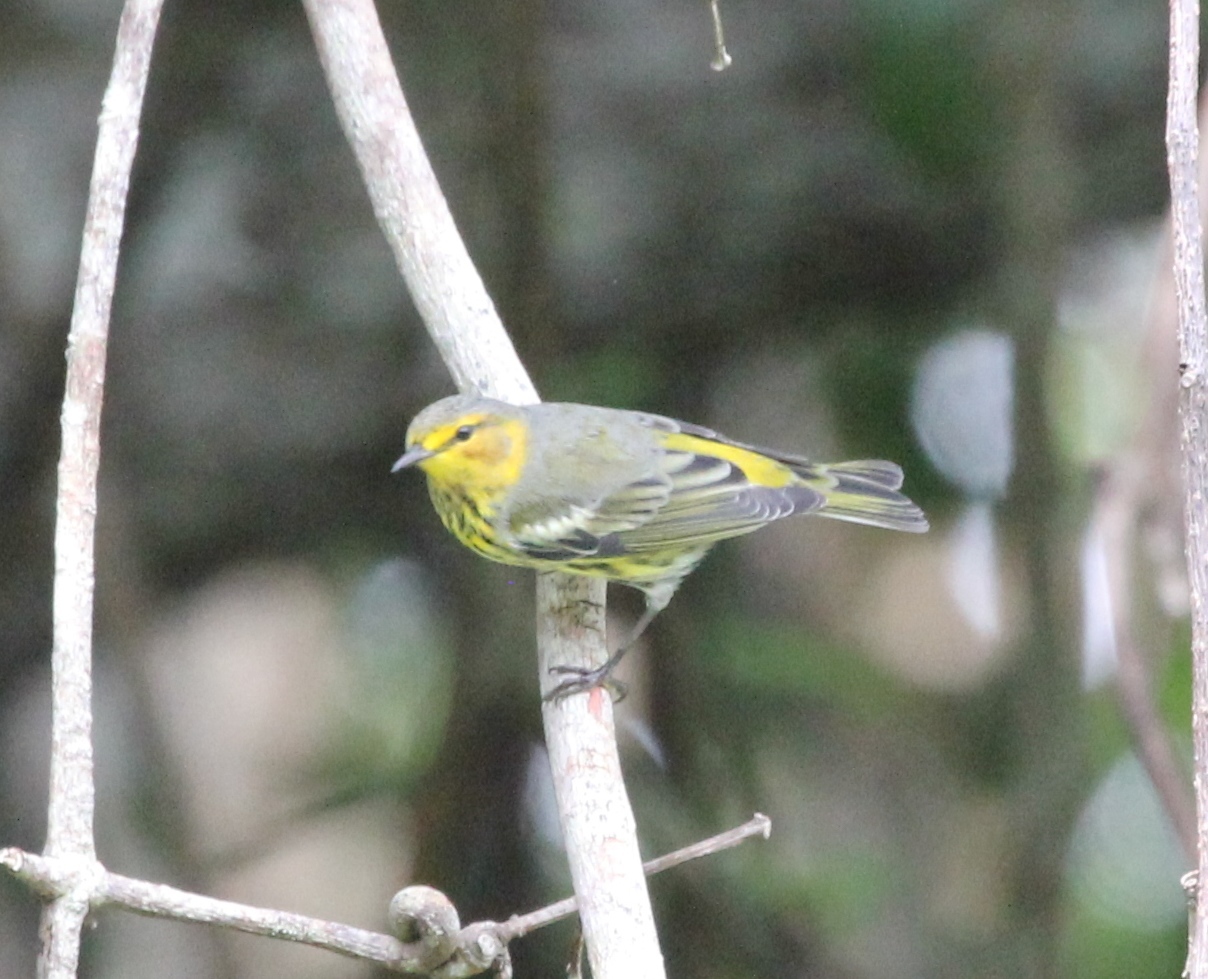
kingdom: Animalia
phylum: Chordata
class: Aves
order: Passeriformes
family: Parulidae
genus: Setophaga
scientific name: Setophaga tigrina
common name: Cape may warbler
